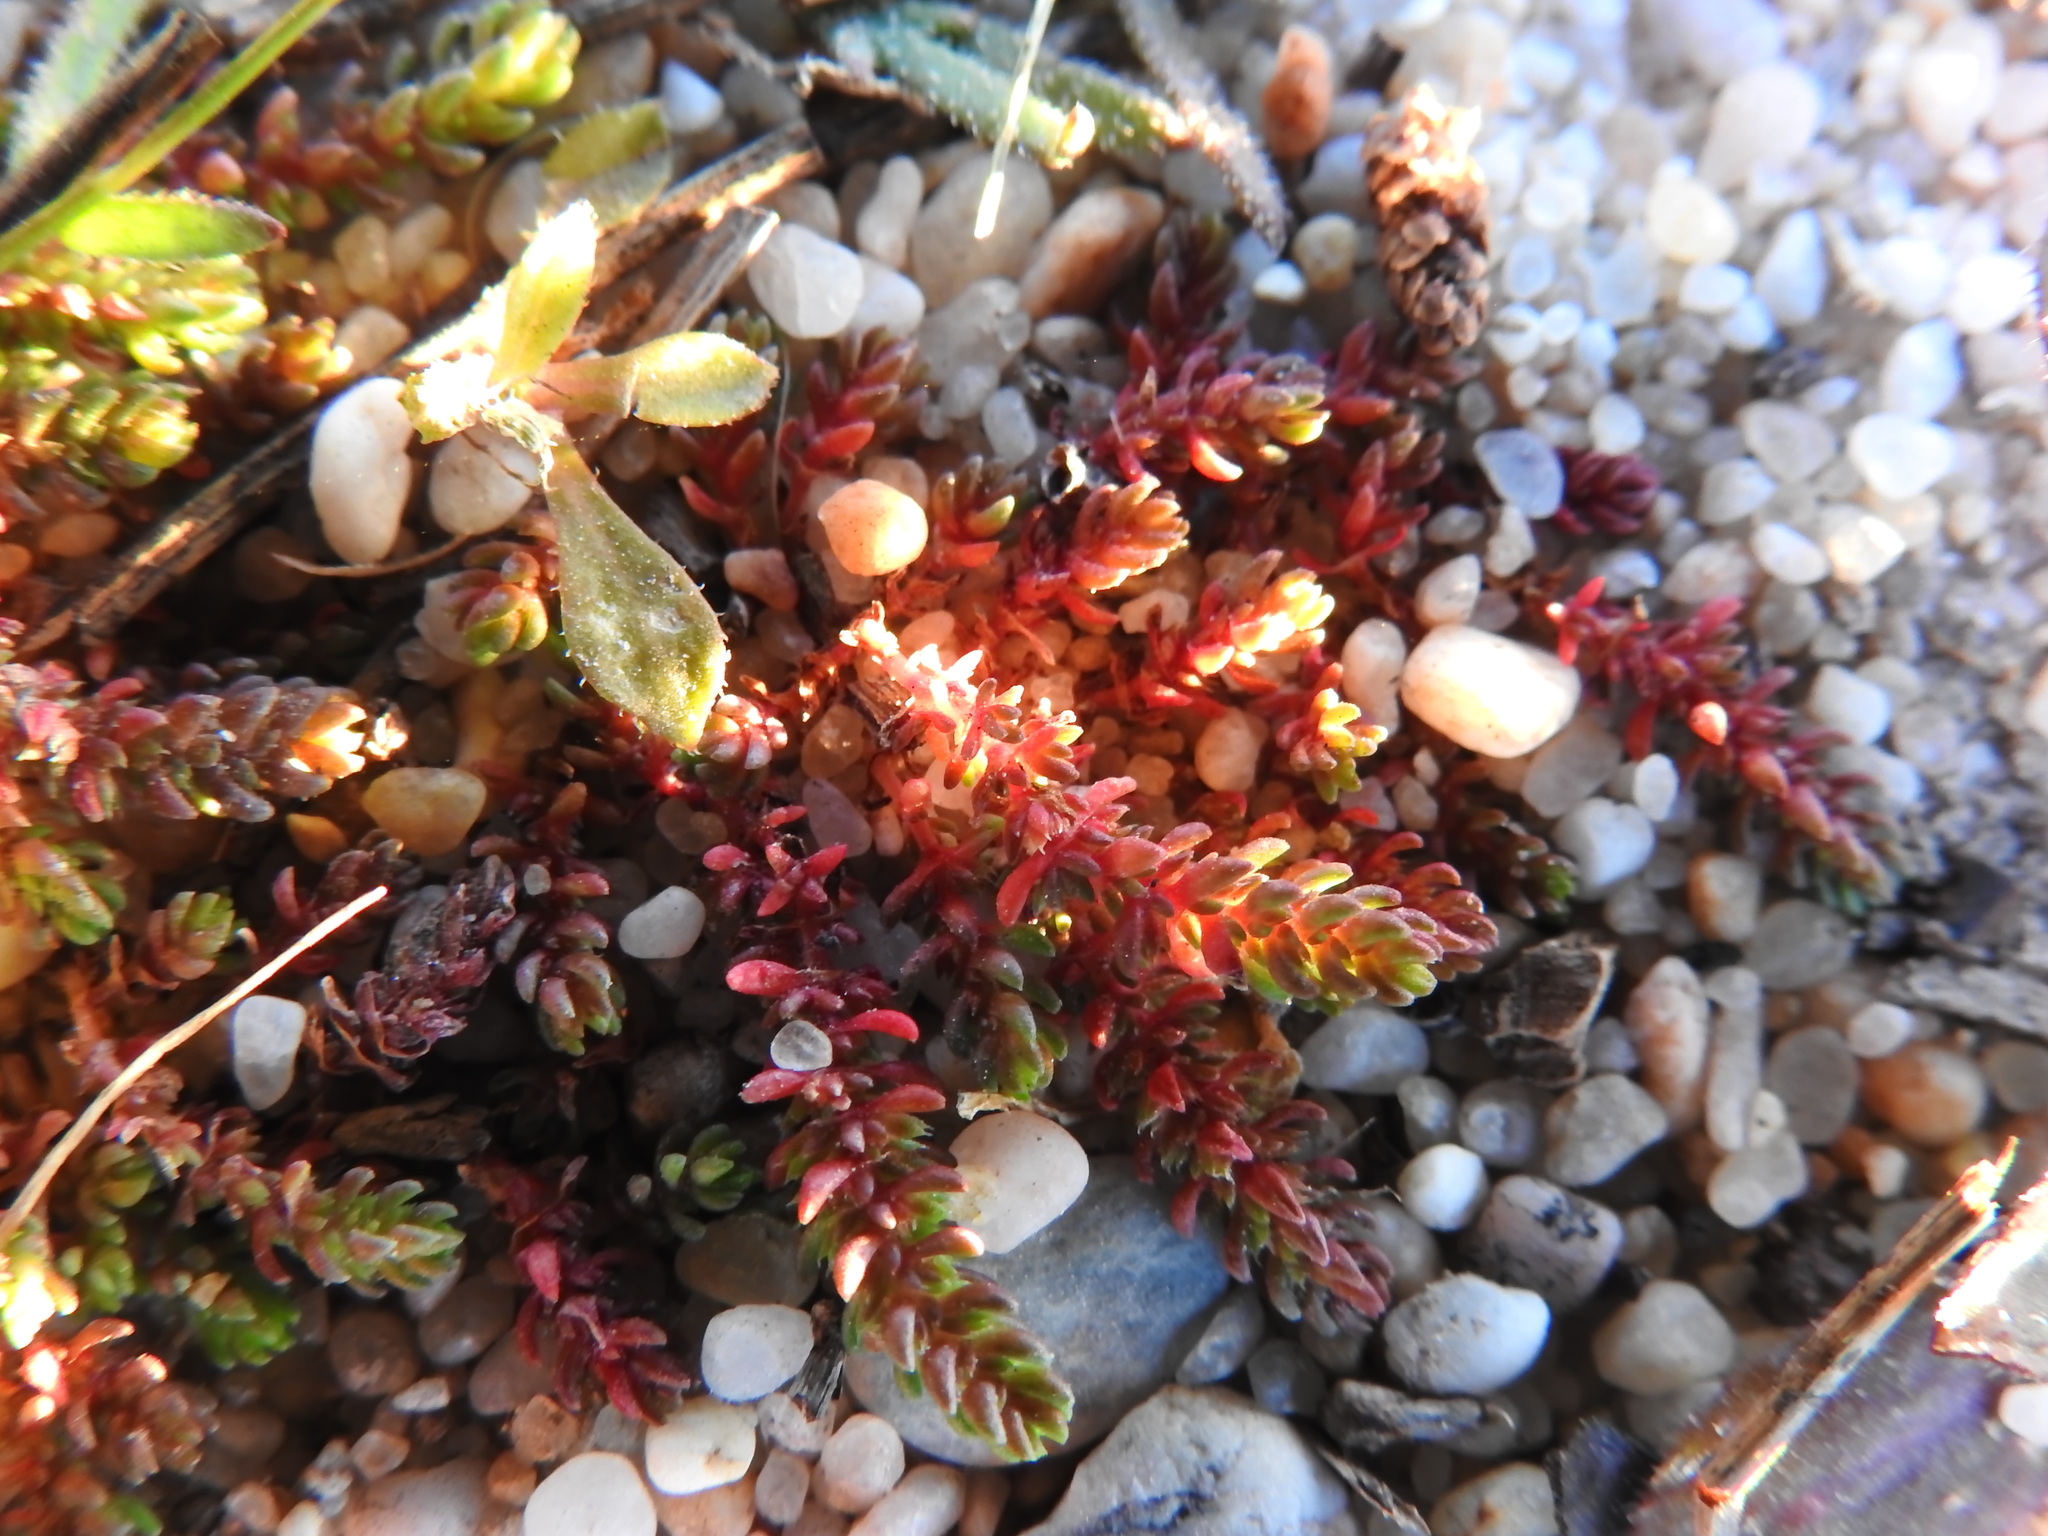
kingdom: Plantae
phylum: Tracheophyta
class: Magnoliopsida
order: Saxifragales
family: Crassulaceae
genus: Crassula
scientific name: Crassula tillaea
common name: Mossy stonecrop
